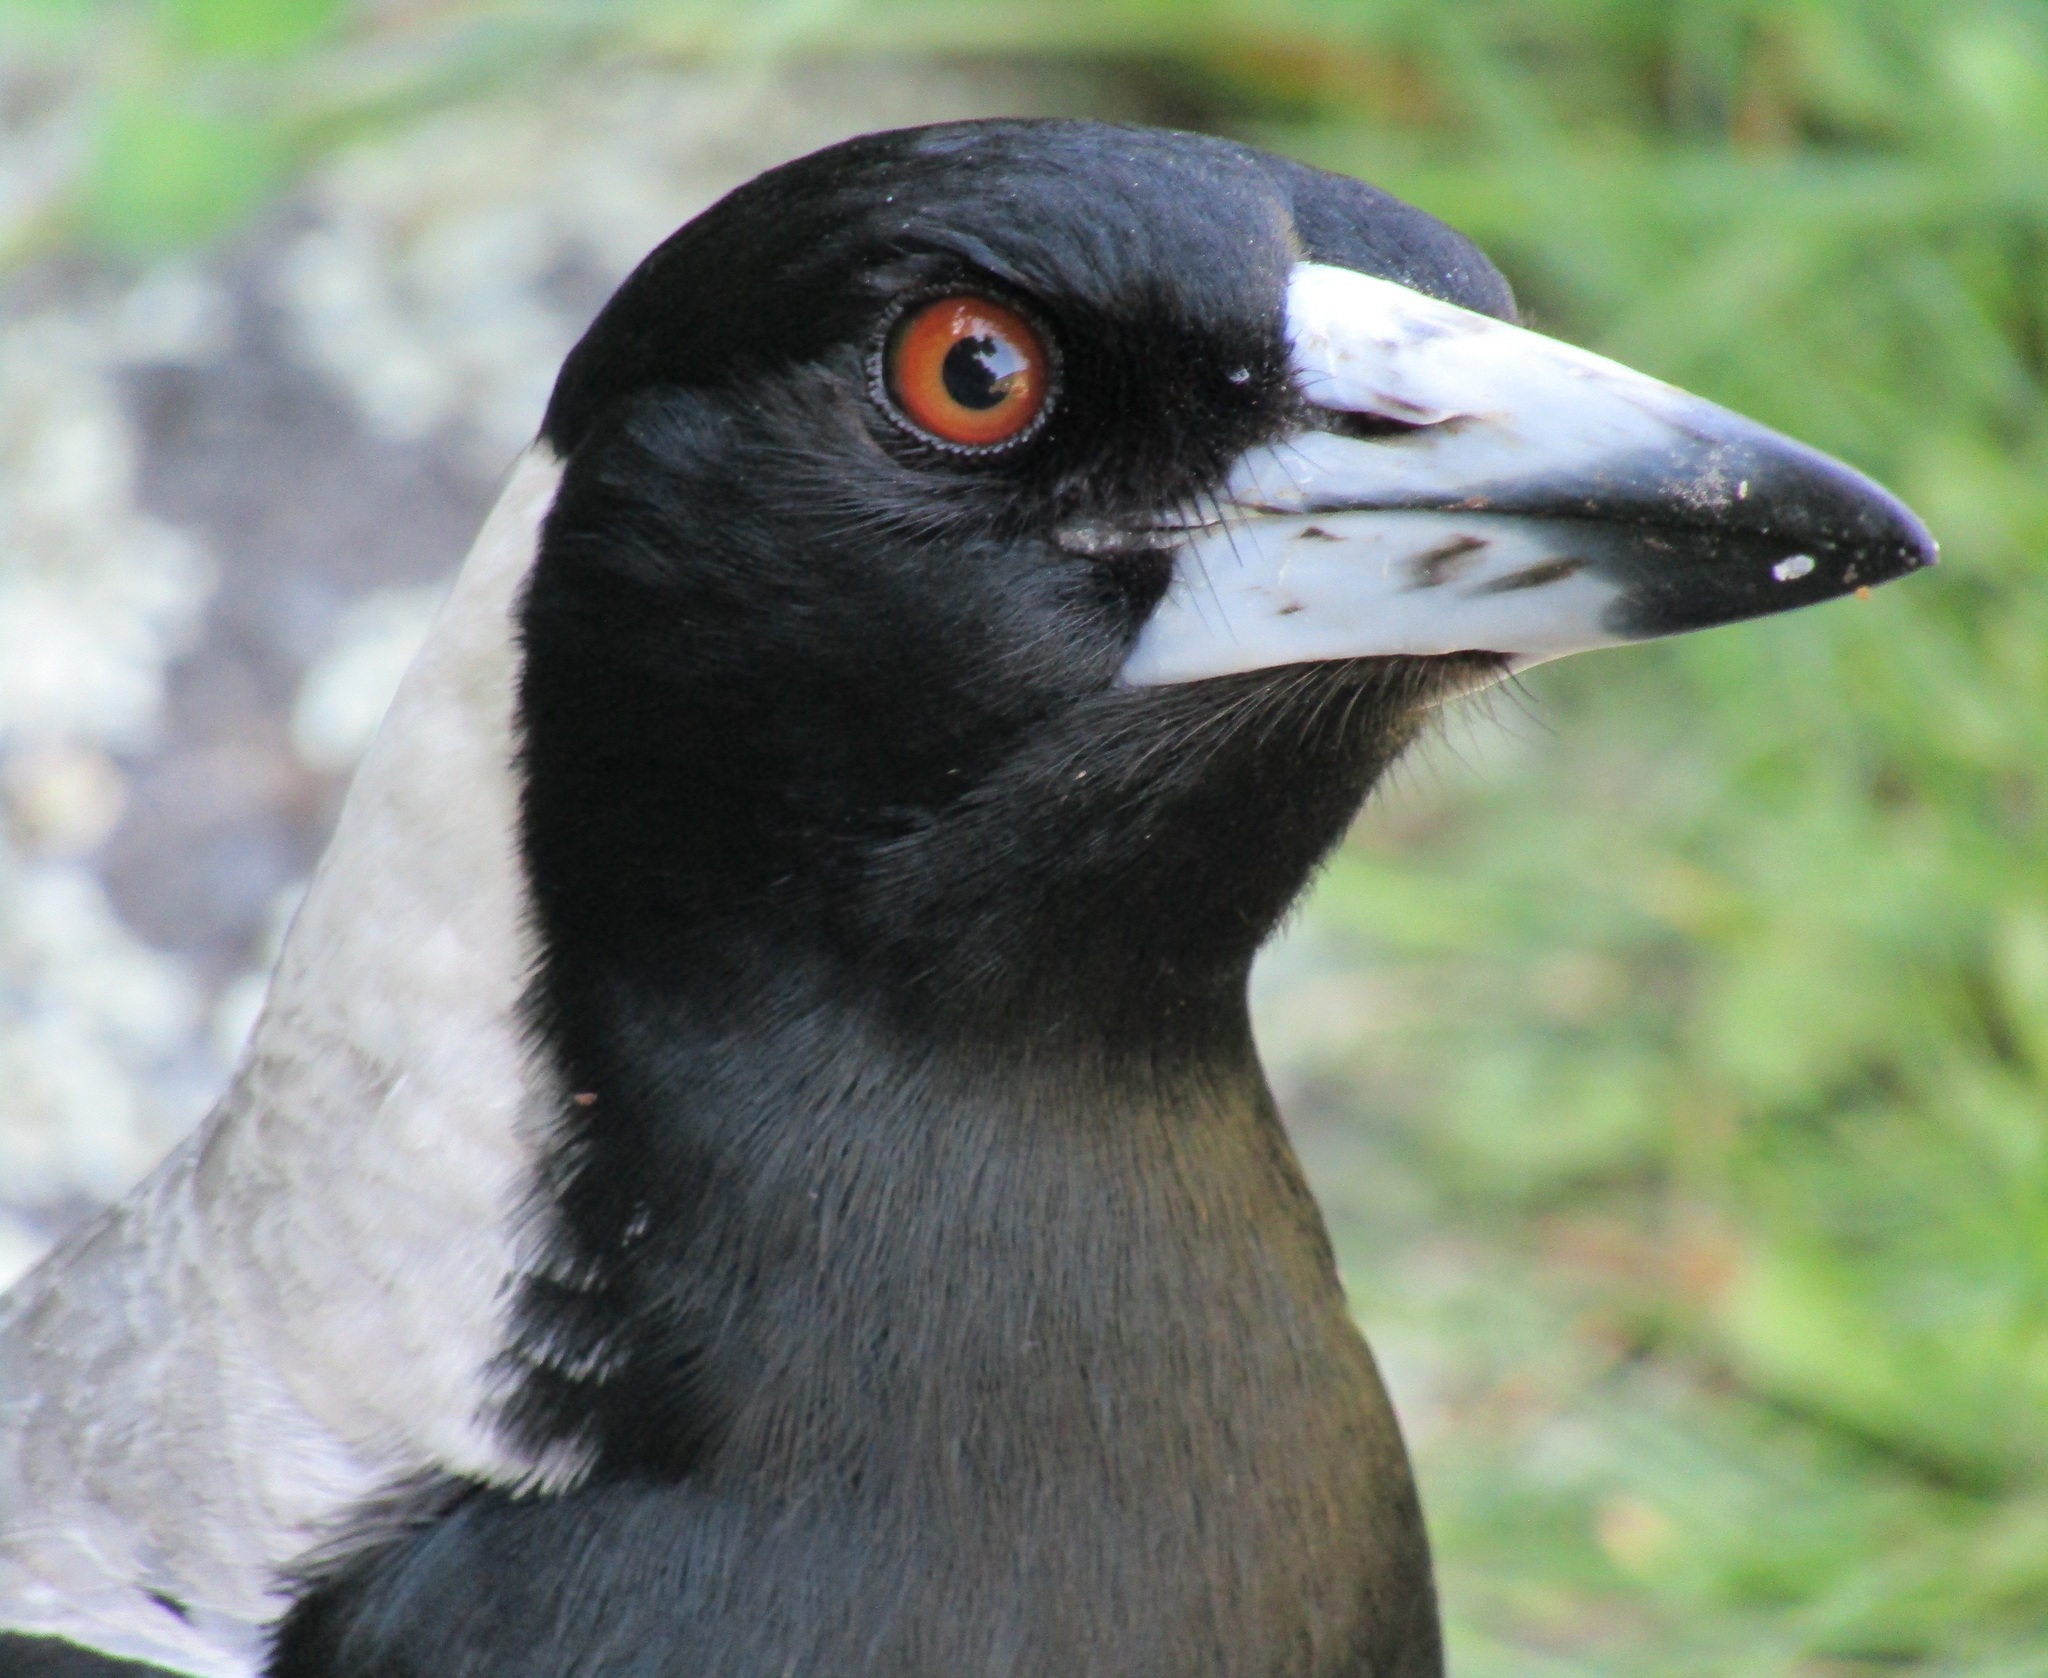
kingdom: Animalia
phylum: Chordata
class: Aves
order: Passeriformes
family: Cracticidae
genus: Gymnorhina
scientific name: Gymnorhina tibicen
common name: Australian magpie
